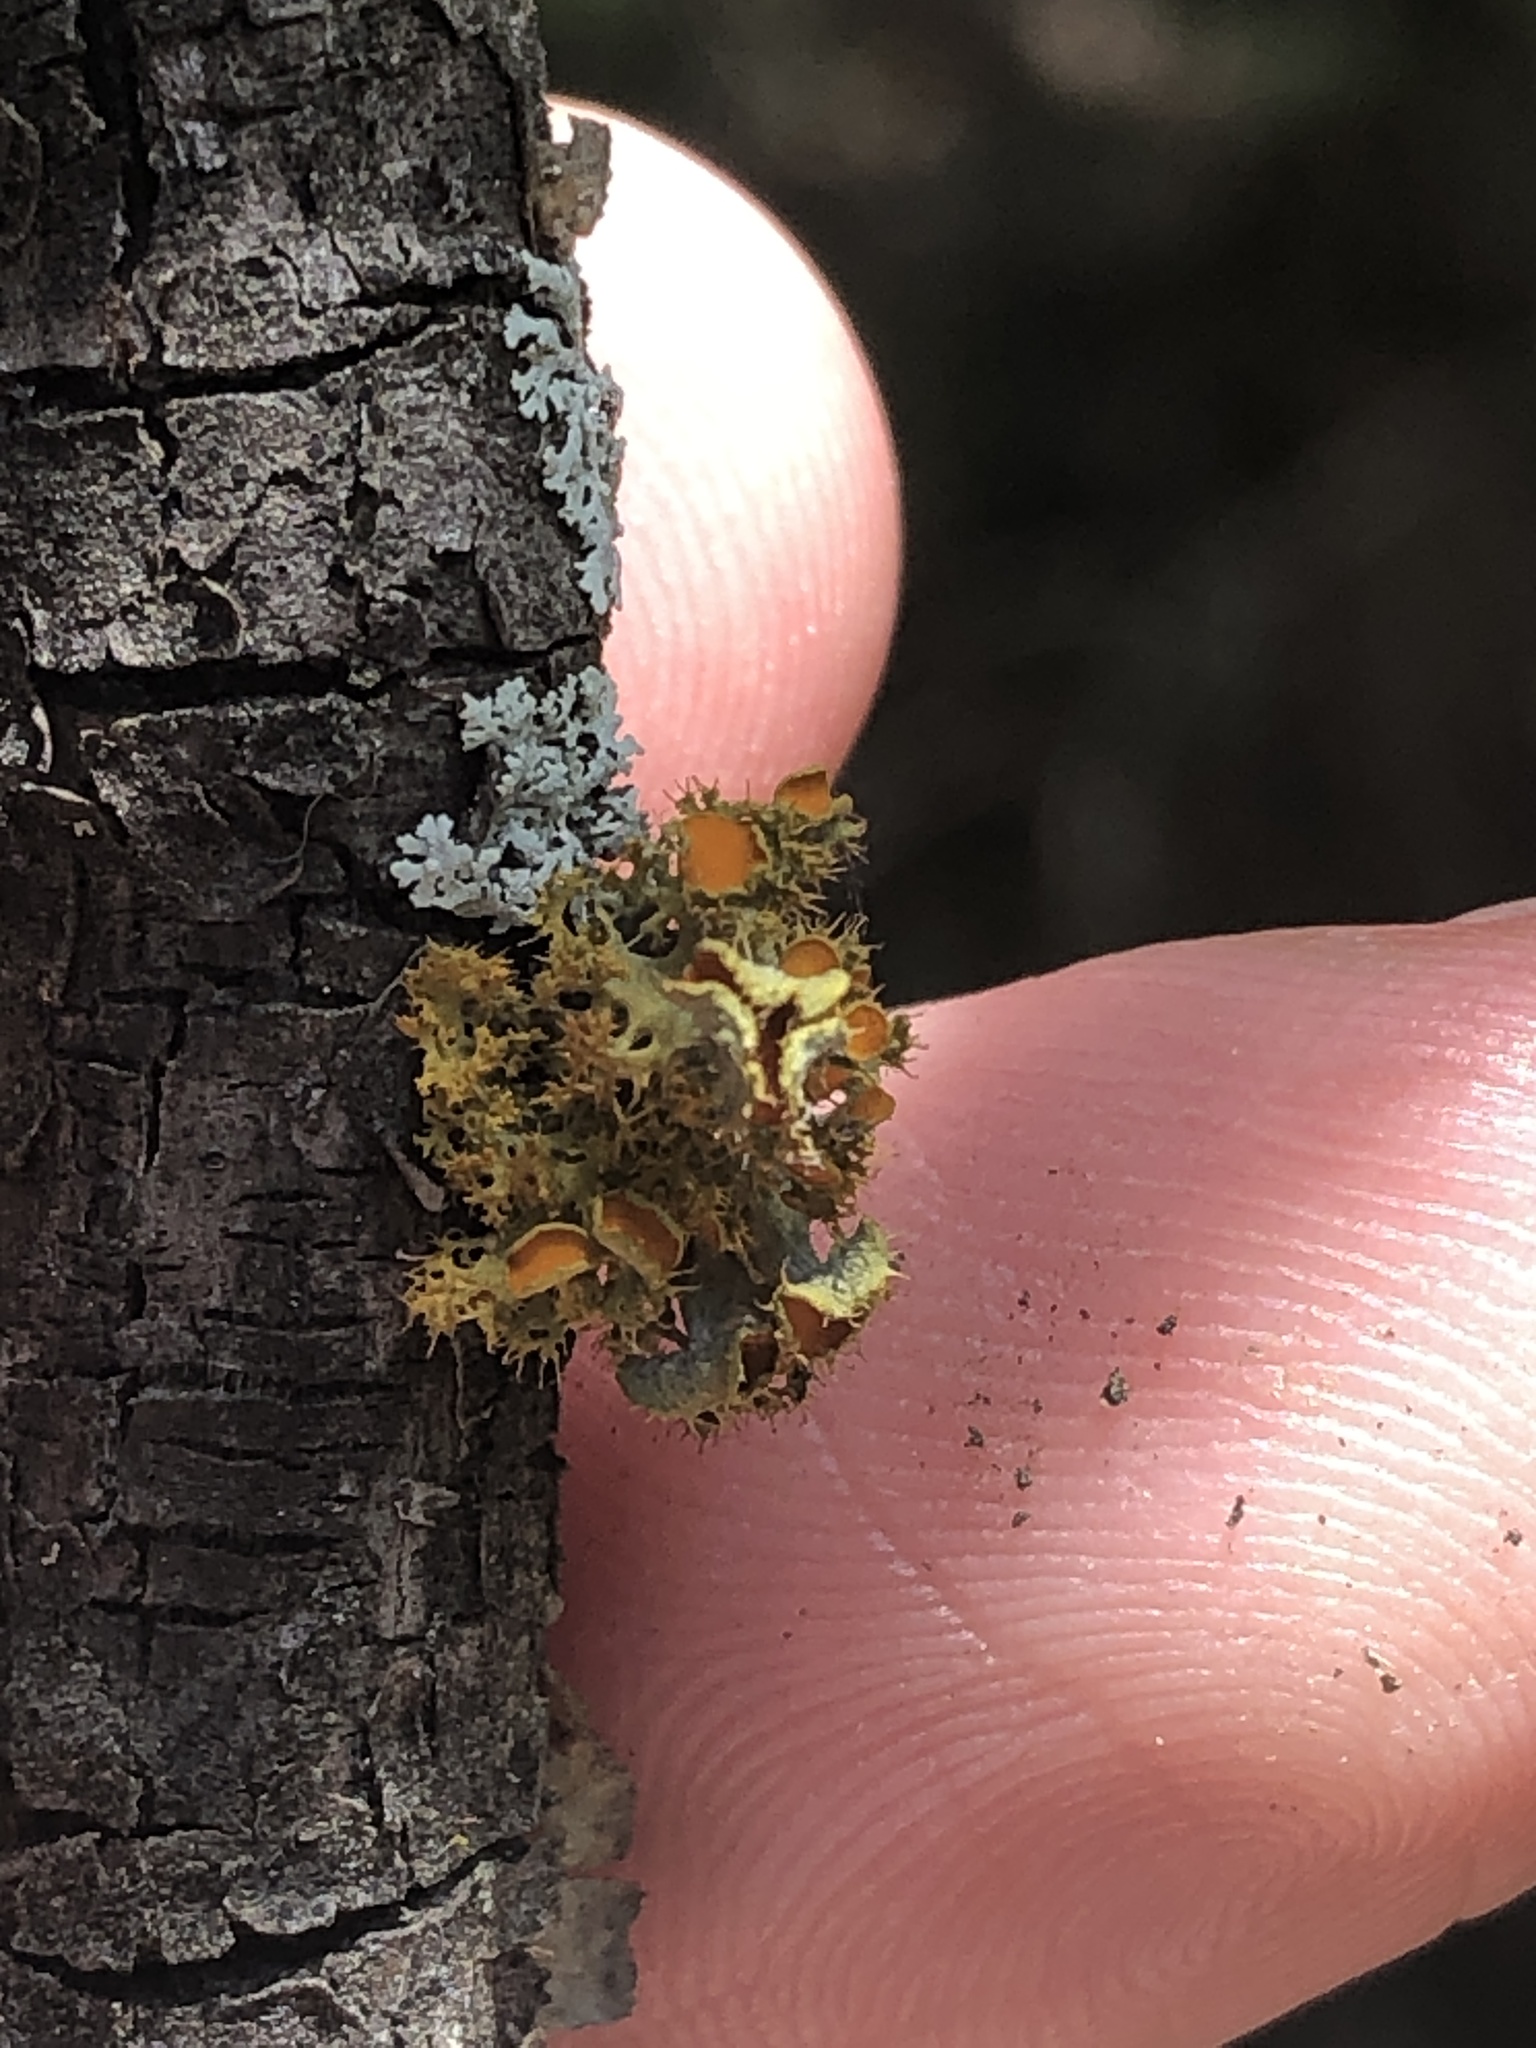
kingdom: Fungi
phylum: Ascomycota
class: Lecanoromycetes
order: Teloschistales
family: Teloschistaceae
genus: Niorma
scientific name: Niorma chrysophthalma
